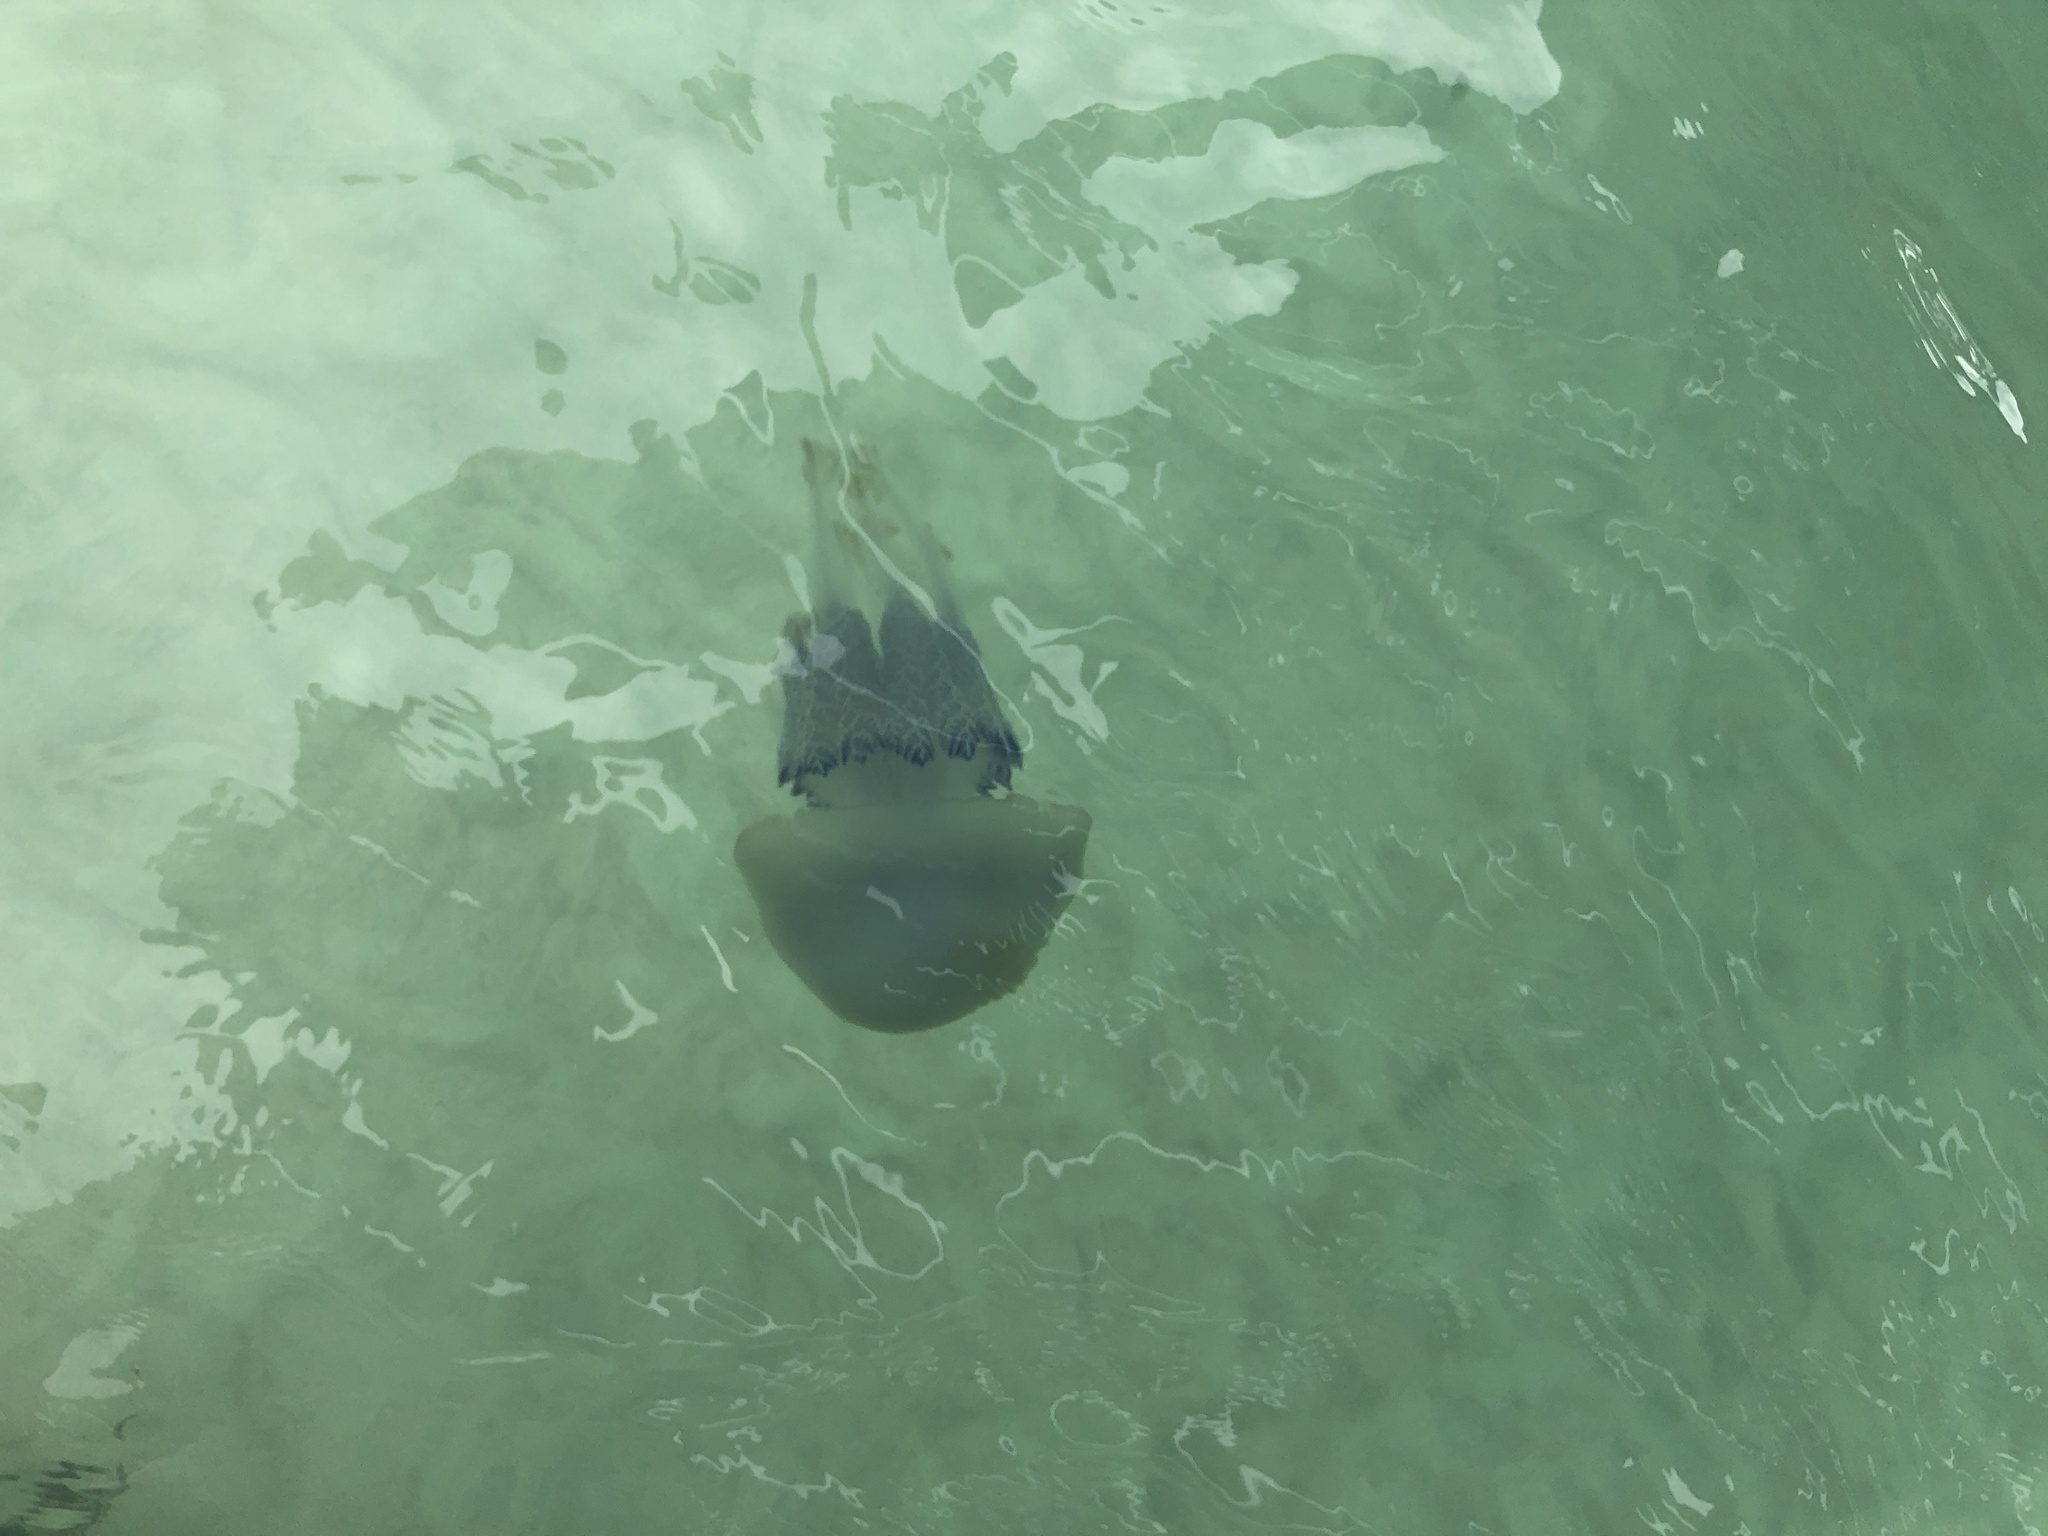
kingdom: Animalia
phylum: Cnidaria
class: Scyphozoa
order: Rhizostomeae
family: Rhizostomatidae
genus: Rhizostoma
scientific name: Rhizostoma pulmo
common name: Barrel jellyfish
